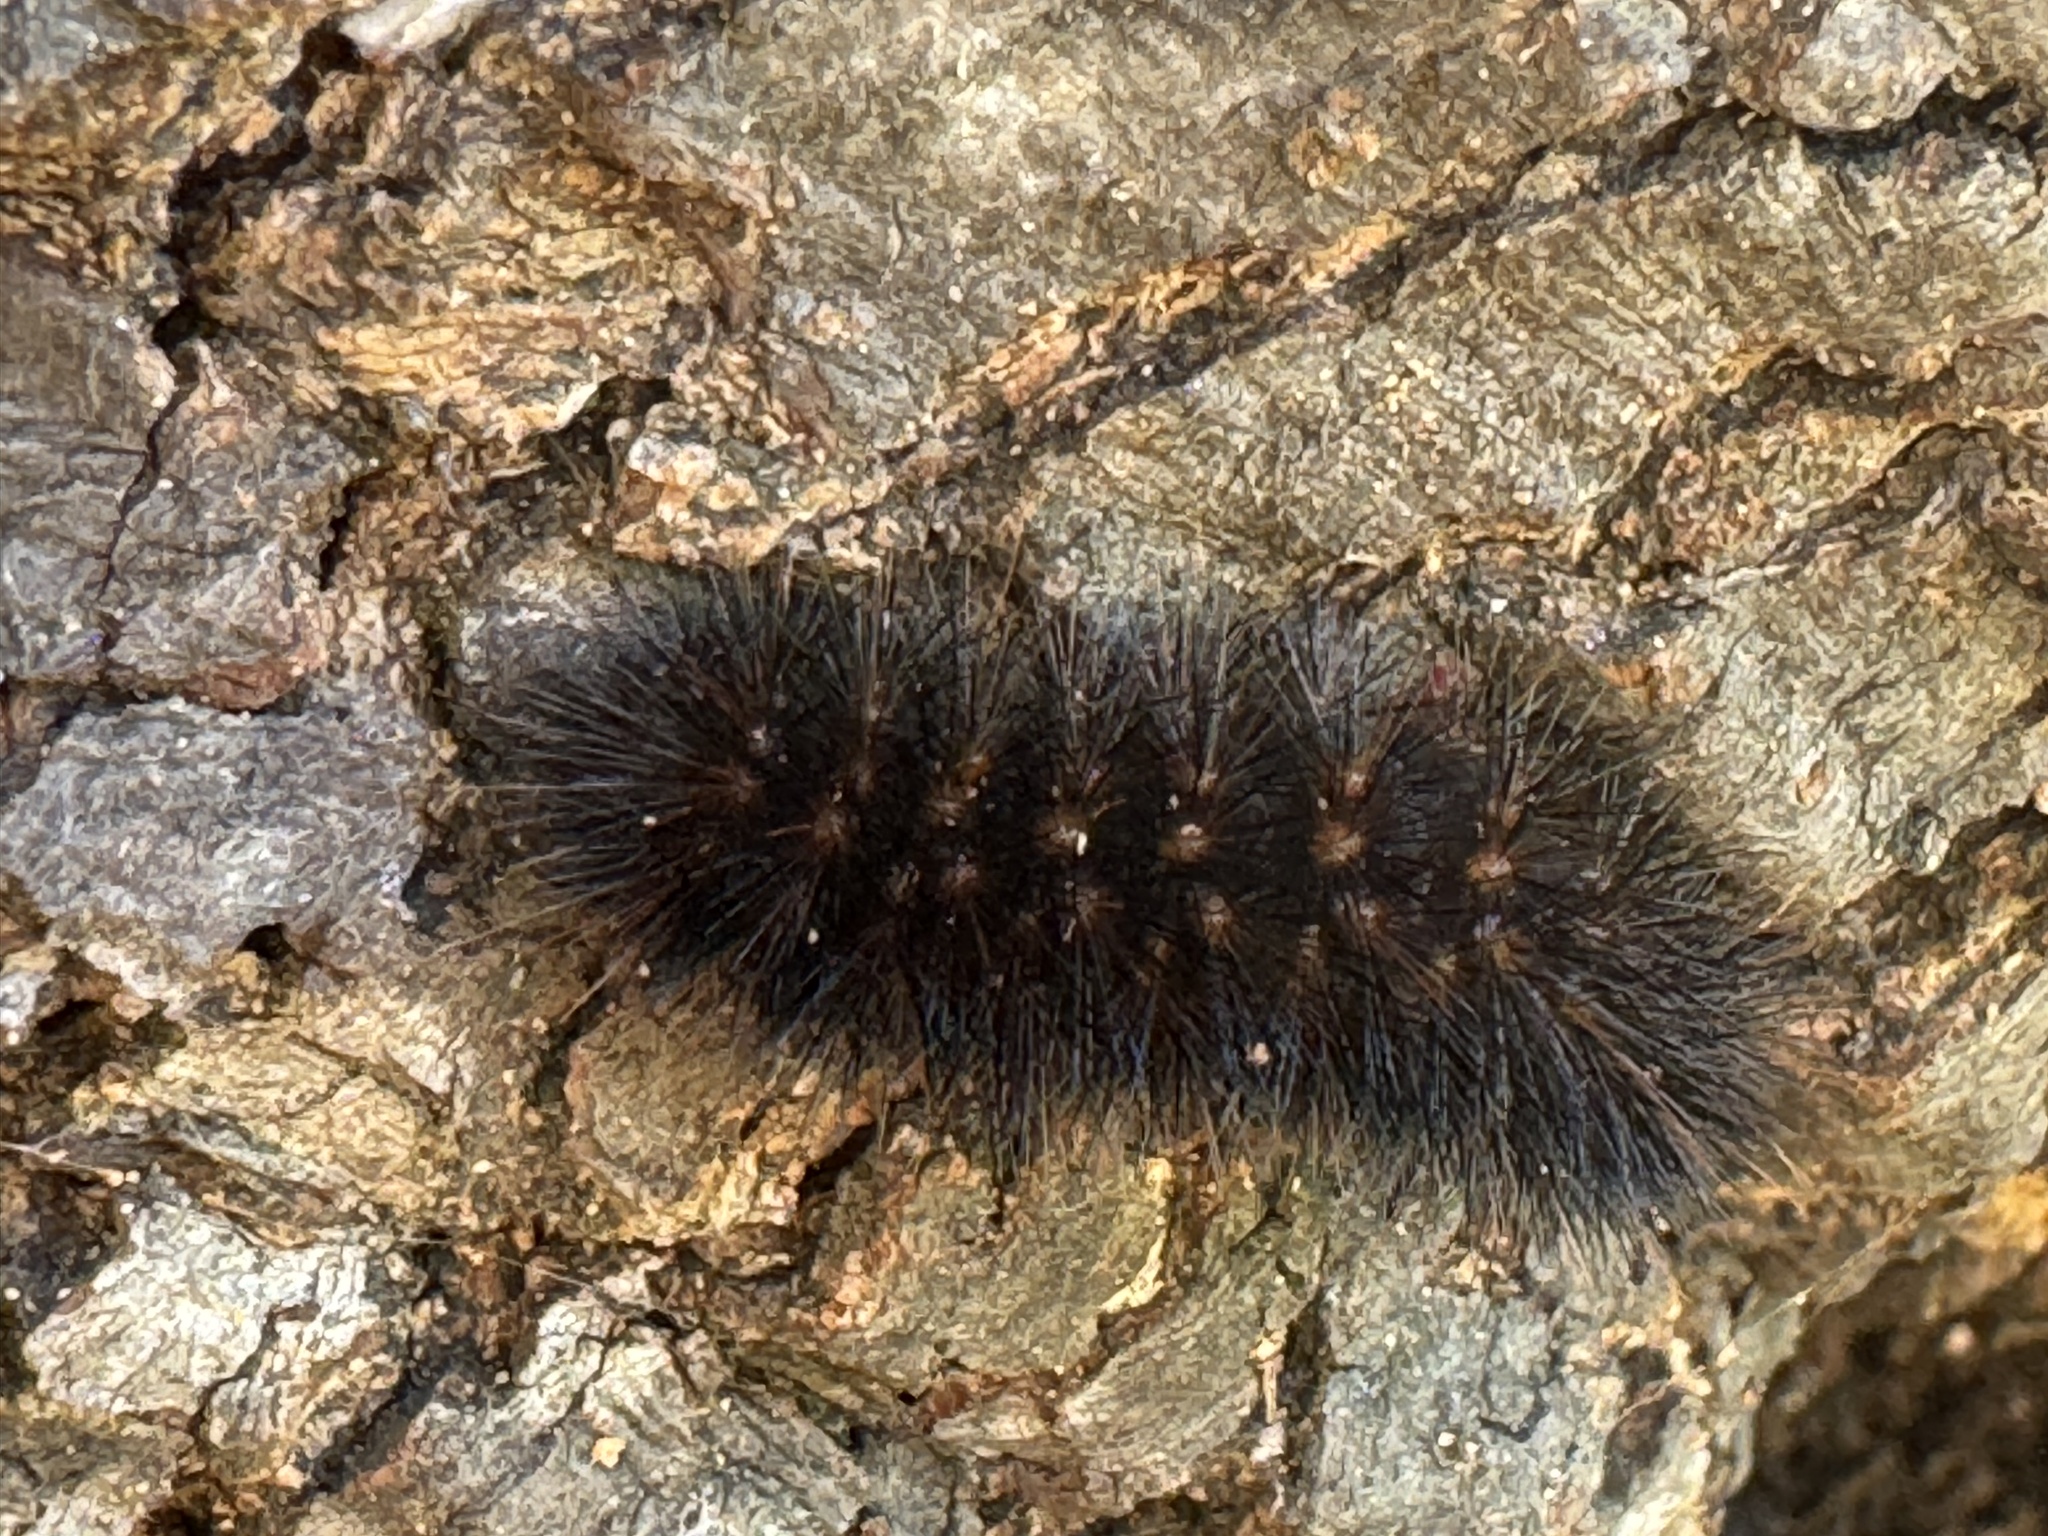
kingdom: Animalia
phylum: Arthropoda
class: Insecta
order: Lepidoptera
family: Erebidae
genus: Arachnis
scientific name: Arachnis picta
